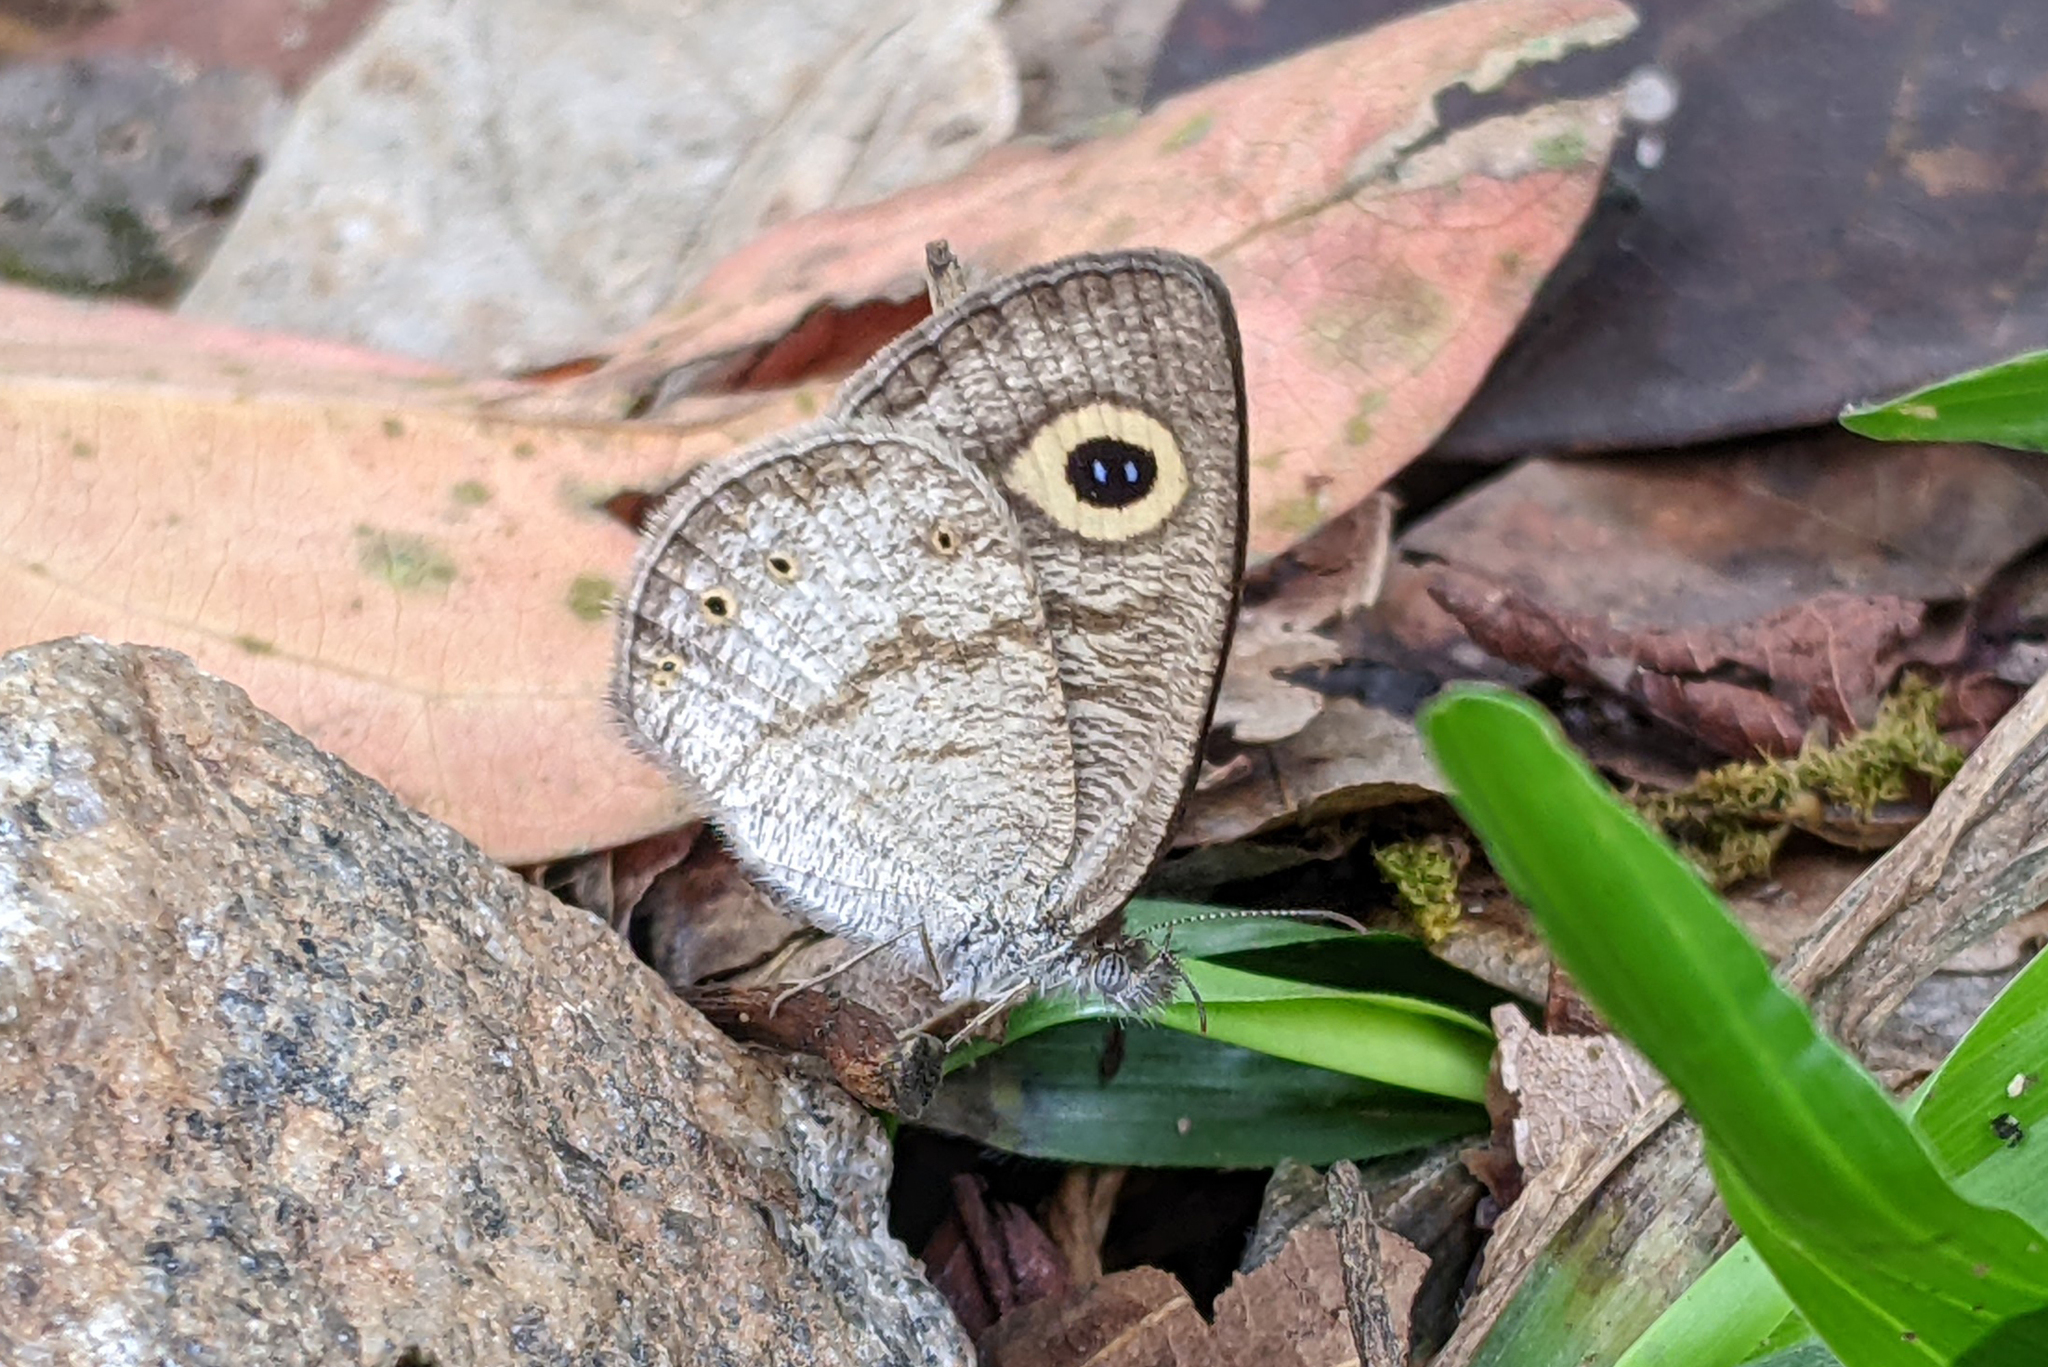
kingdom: Animalia
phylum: Arthropoda
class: Insecta
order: Lepidoptera
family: Nymphalidae
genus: Ypthima
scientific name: Ypthima huebneri
